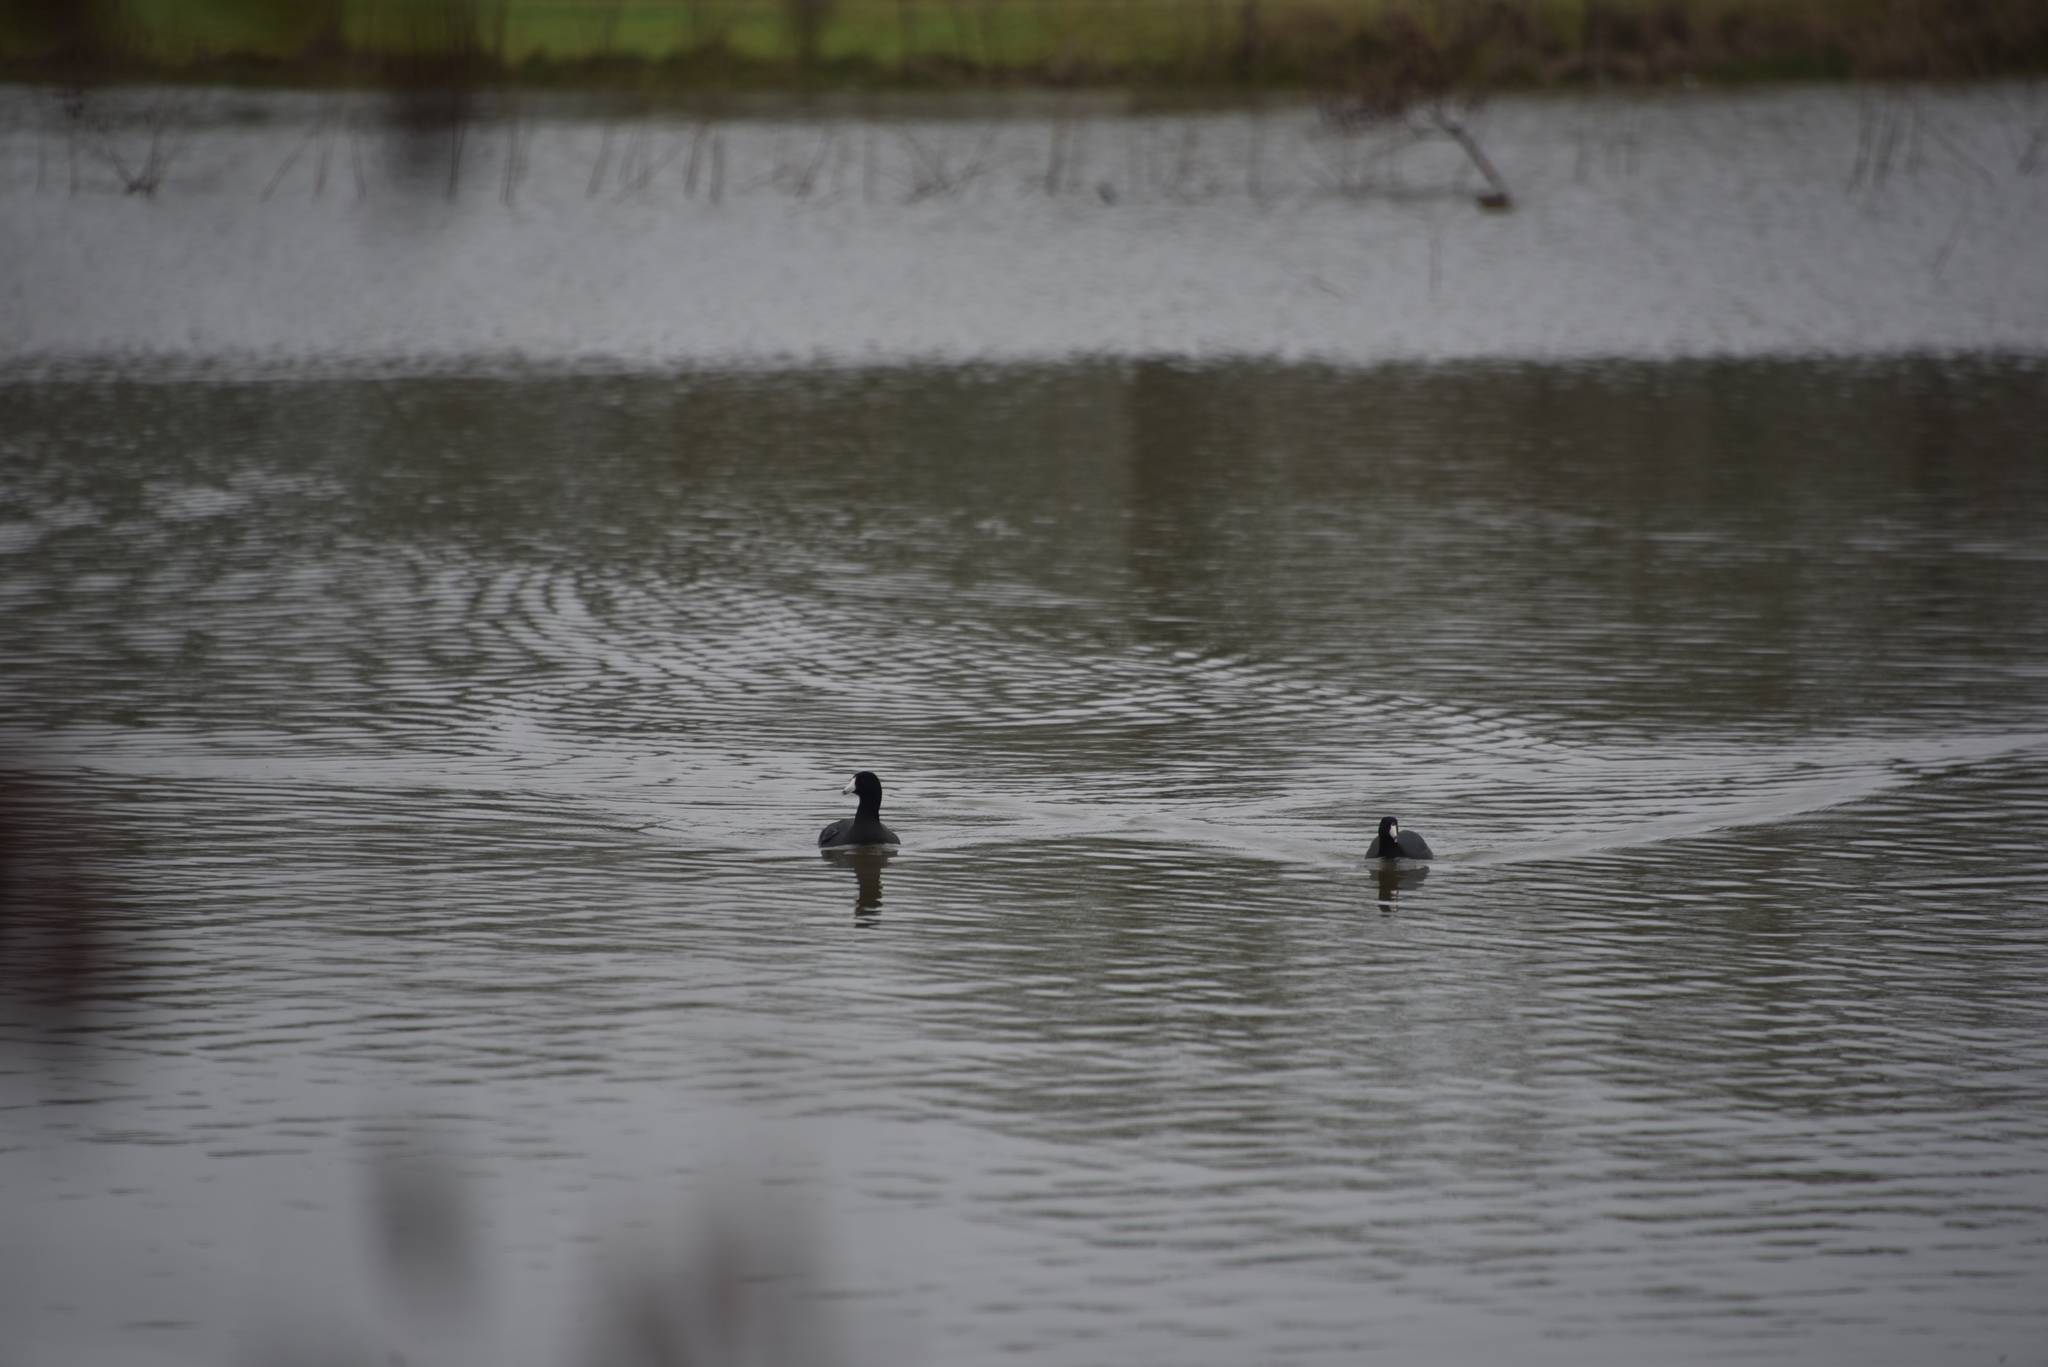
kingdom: Animalia
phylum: Chordata
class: Aves
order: Gruiformes
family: Rallidae
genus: Fulica
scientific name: Fulica americana
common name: American coot
